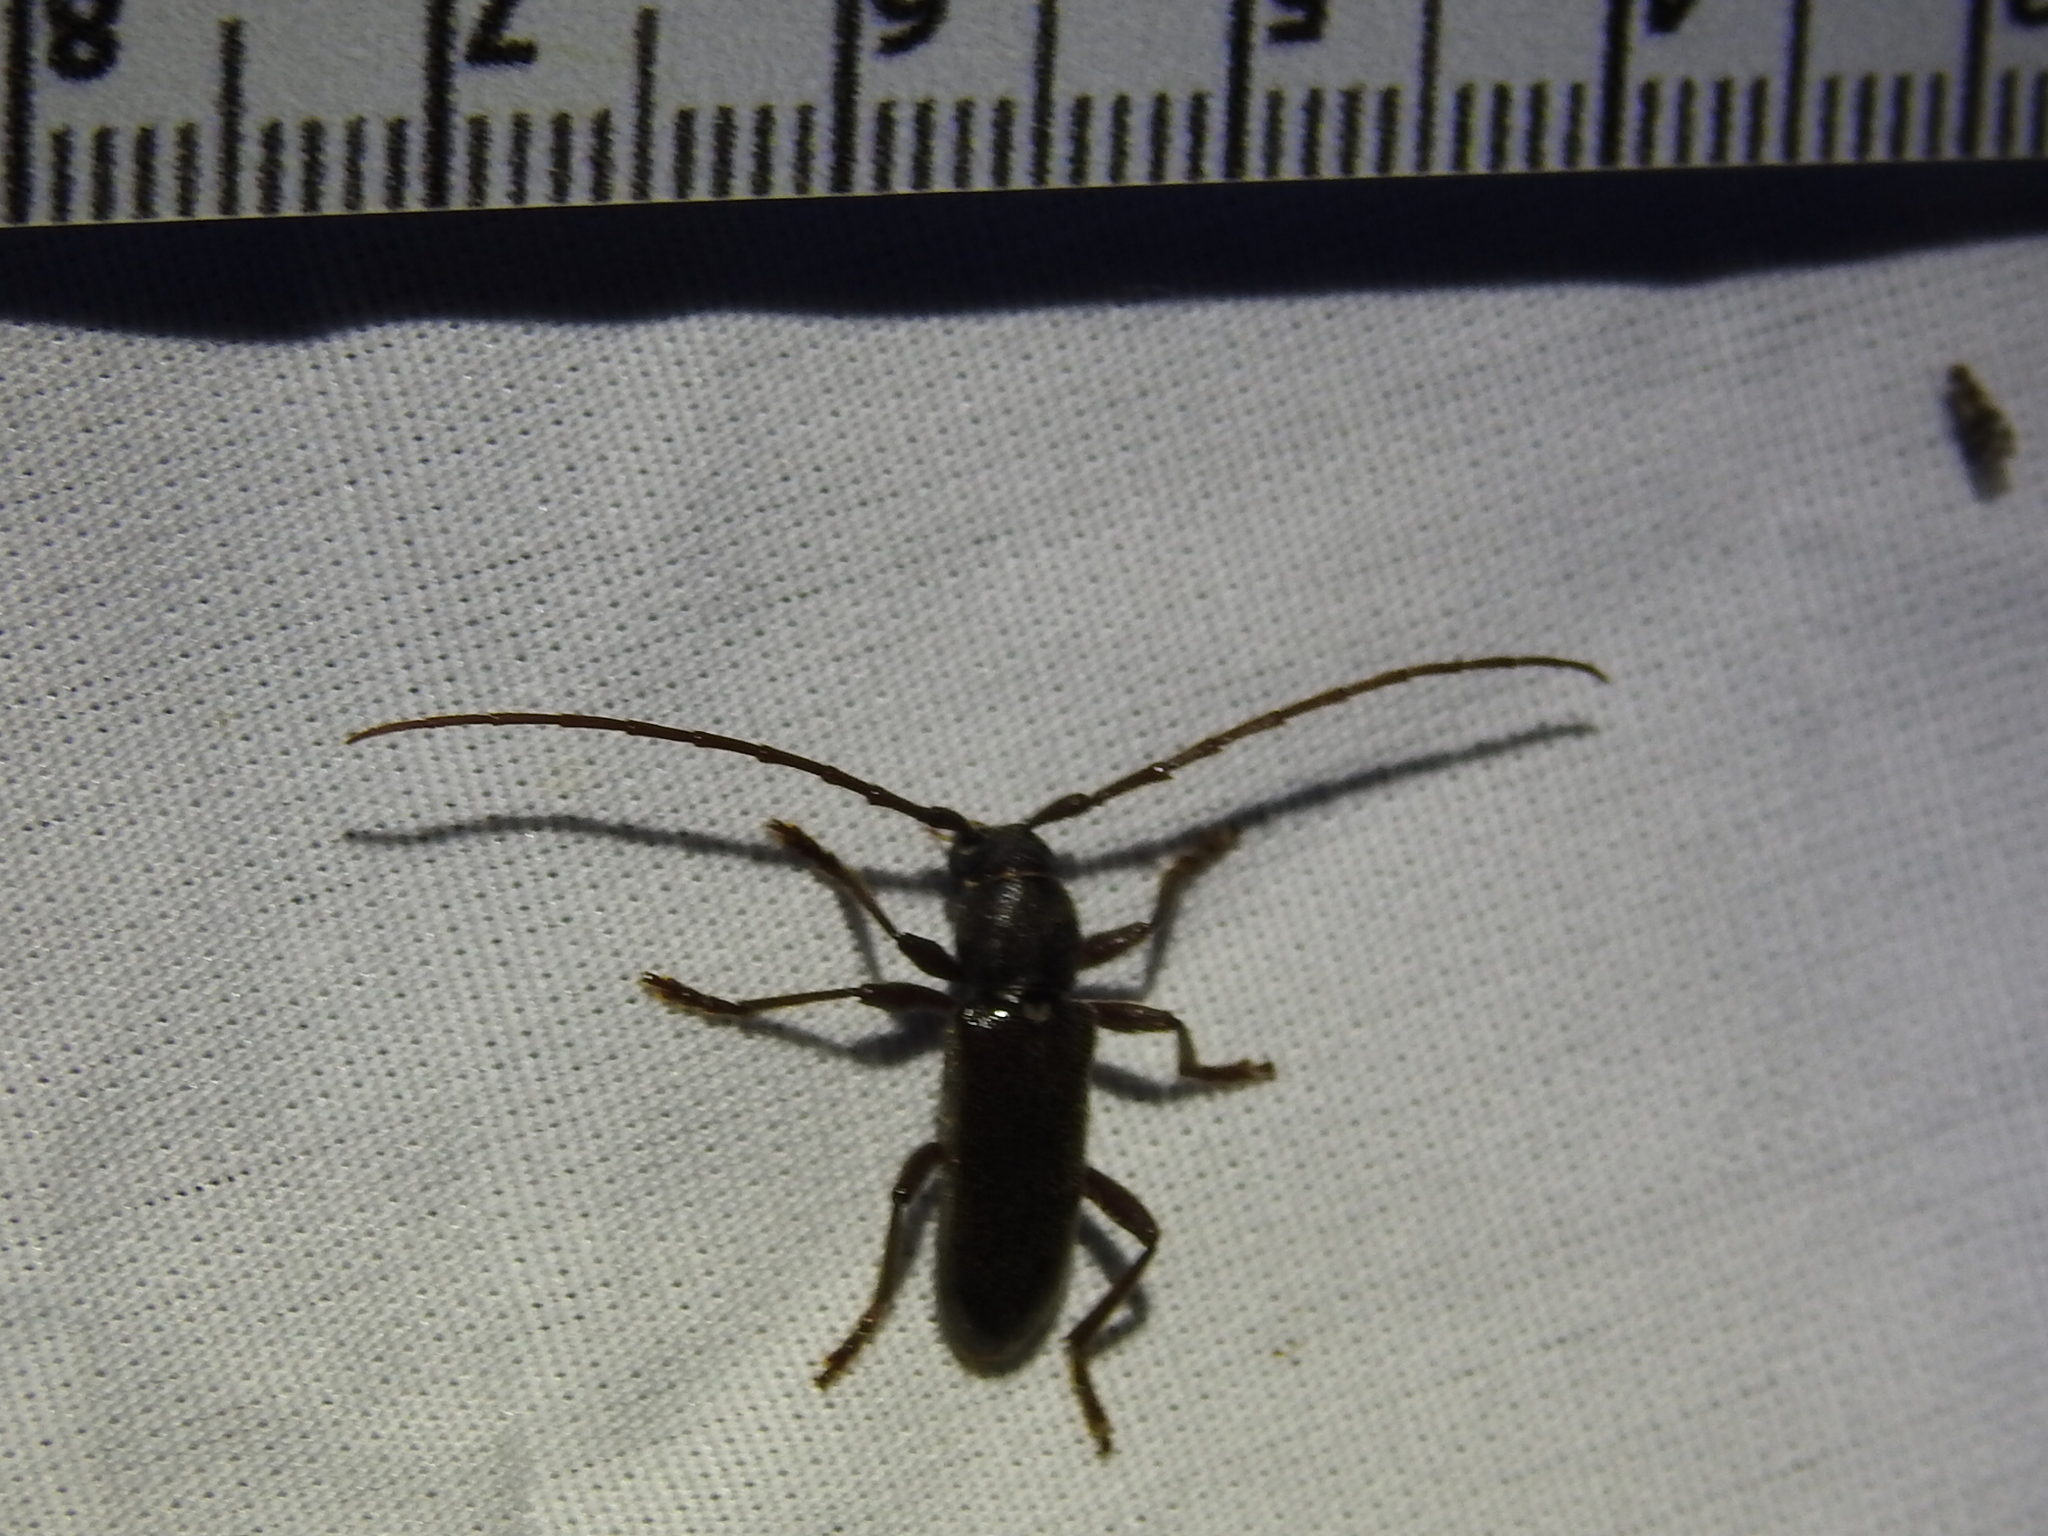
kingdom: Animalia
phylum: Arthropoda
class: Insecta
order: Coleoptera
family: Cerambycidae
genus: Anelaphus
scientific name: Anelaphus moestus
